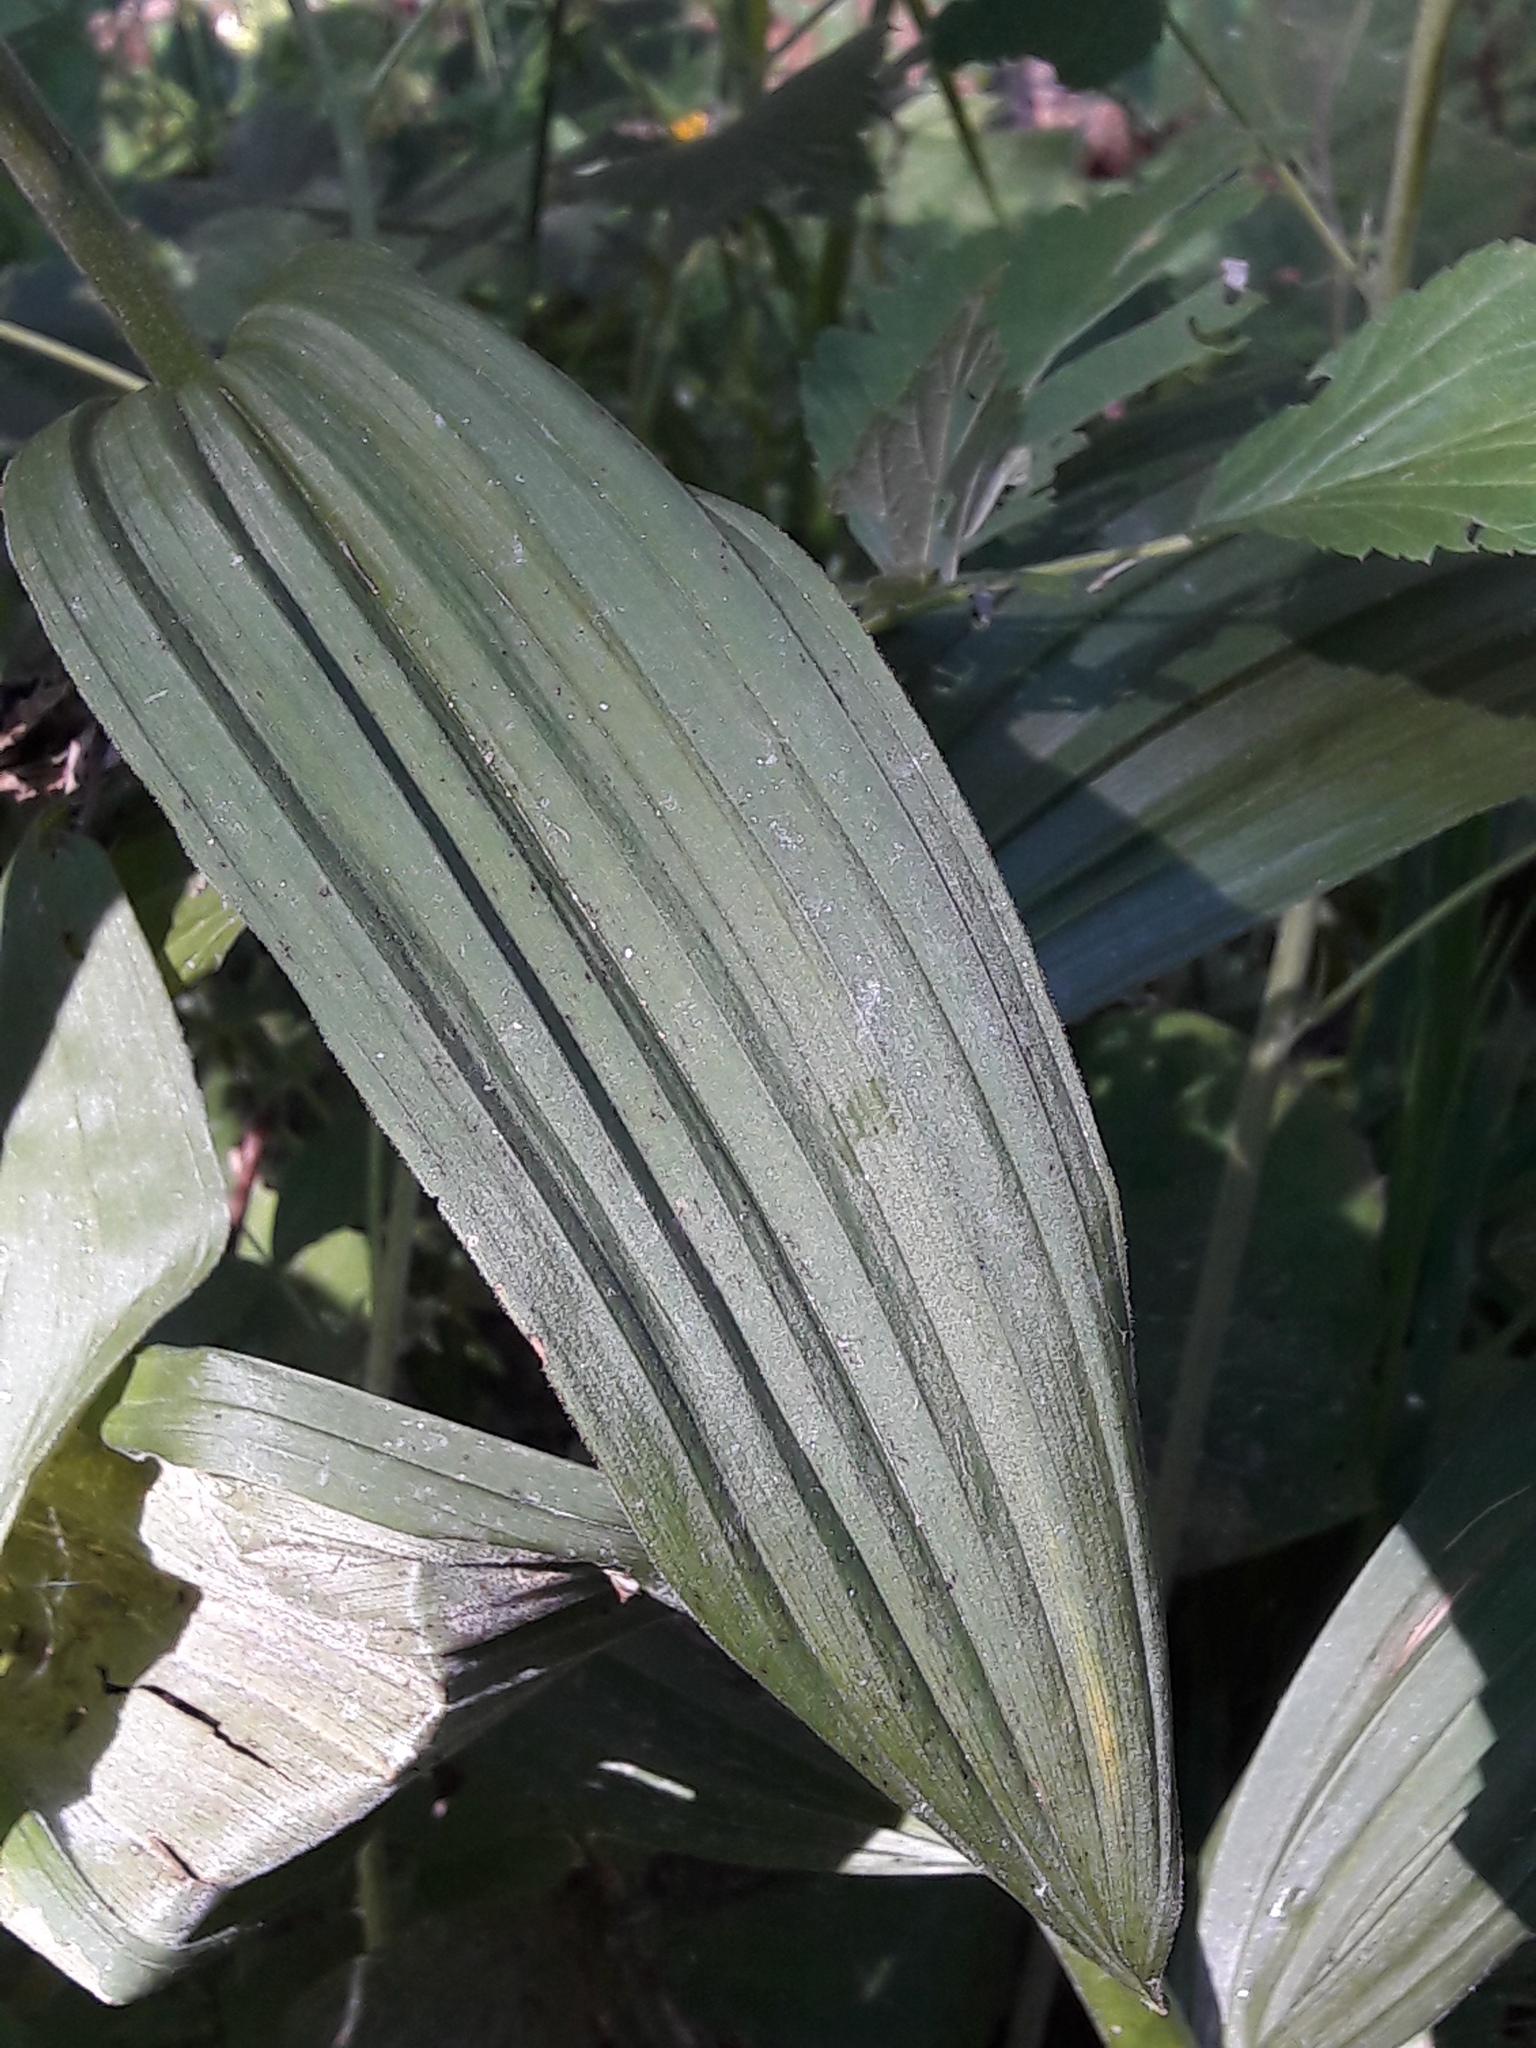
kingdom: Plantae
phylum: Tracheophyta
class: Liliopsida
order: Liliales
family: Melanthiaceae
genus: Veratrum
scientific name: Veratrum lobelianum
